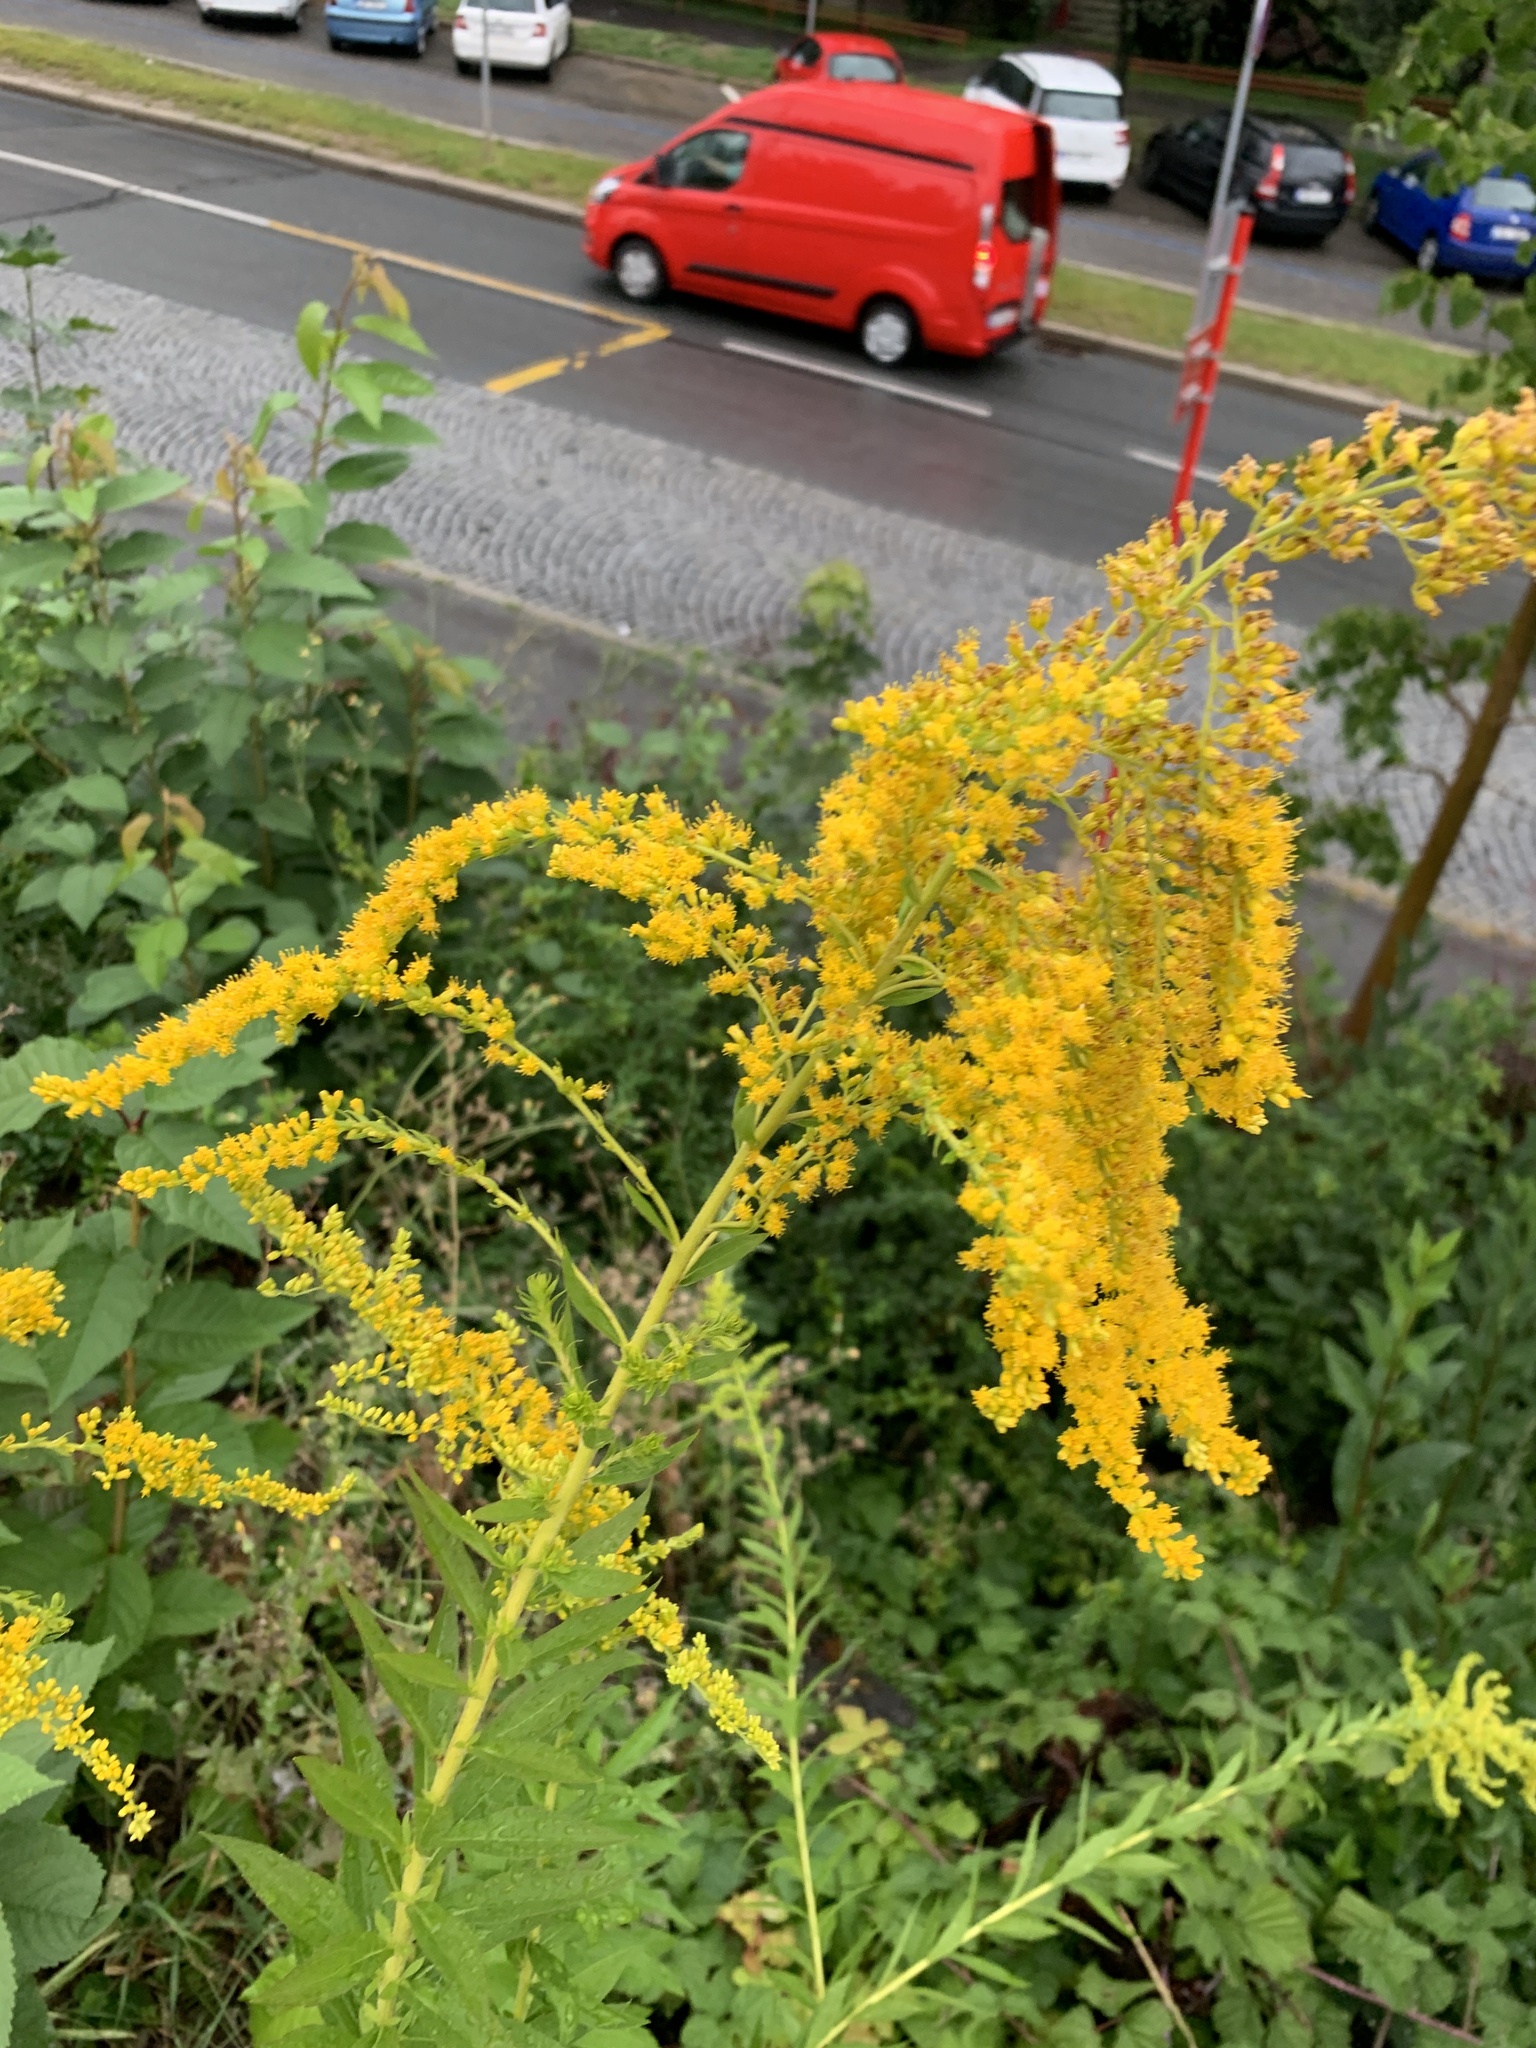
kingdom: Plantae
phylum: Tracheophyta
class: Magnoliopsida
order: Asterales
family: Asteraceae
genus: Solidago
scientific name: Solidago canadensis
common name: Canada goldenrod
